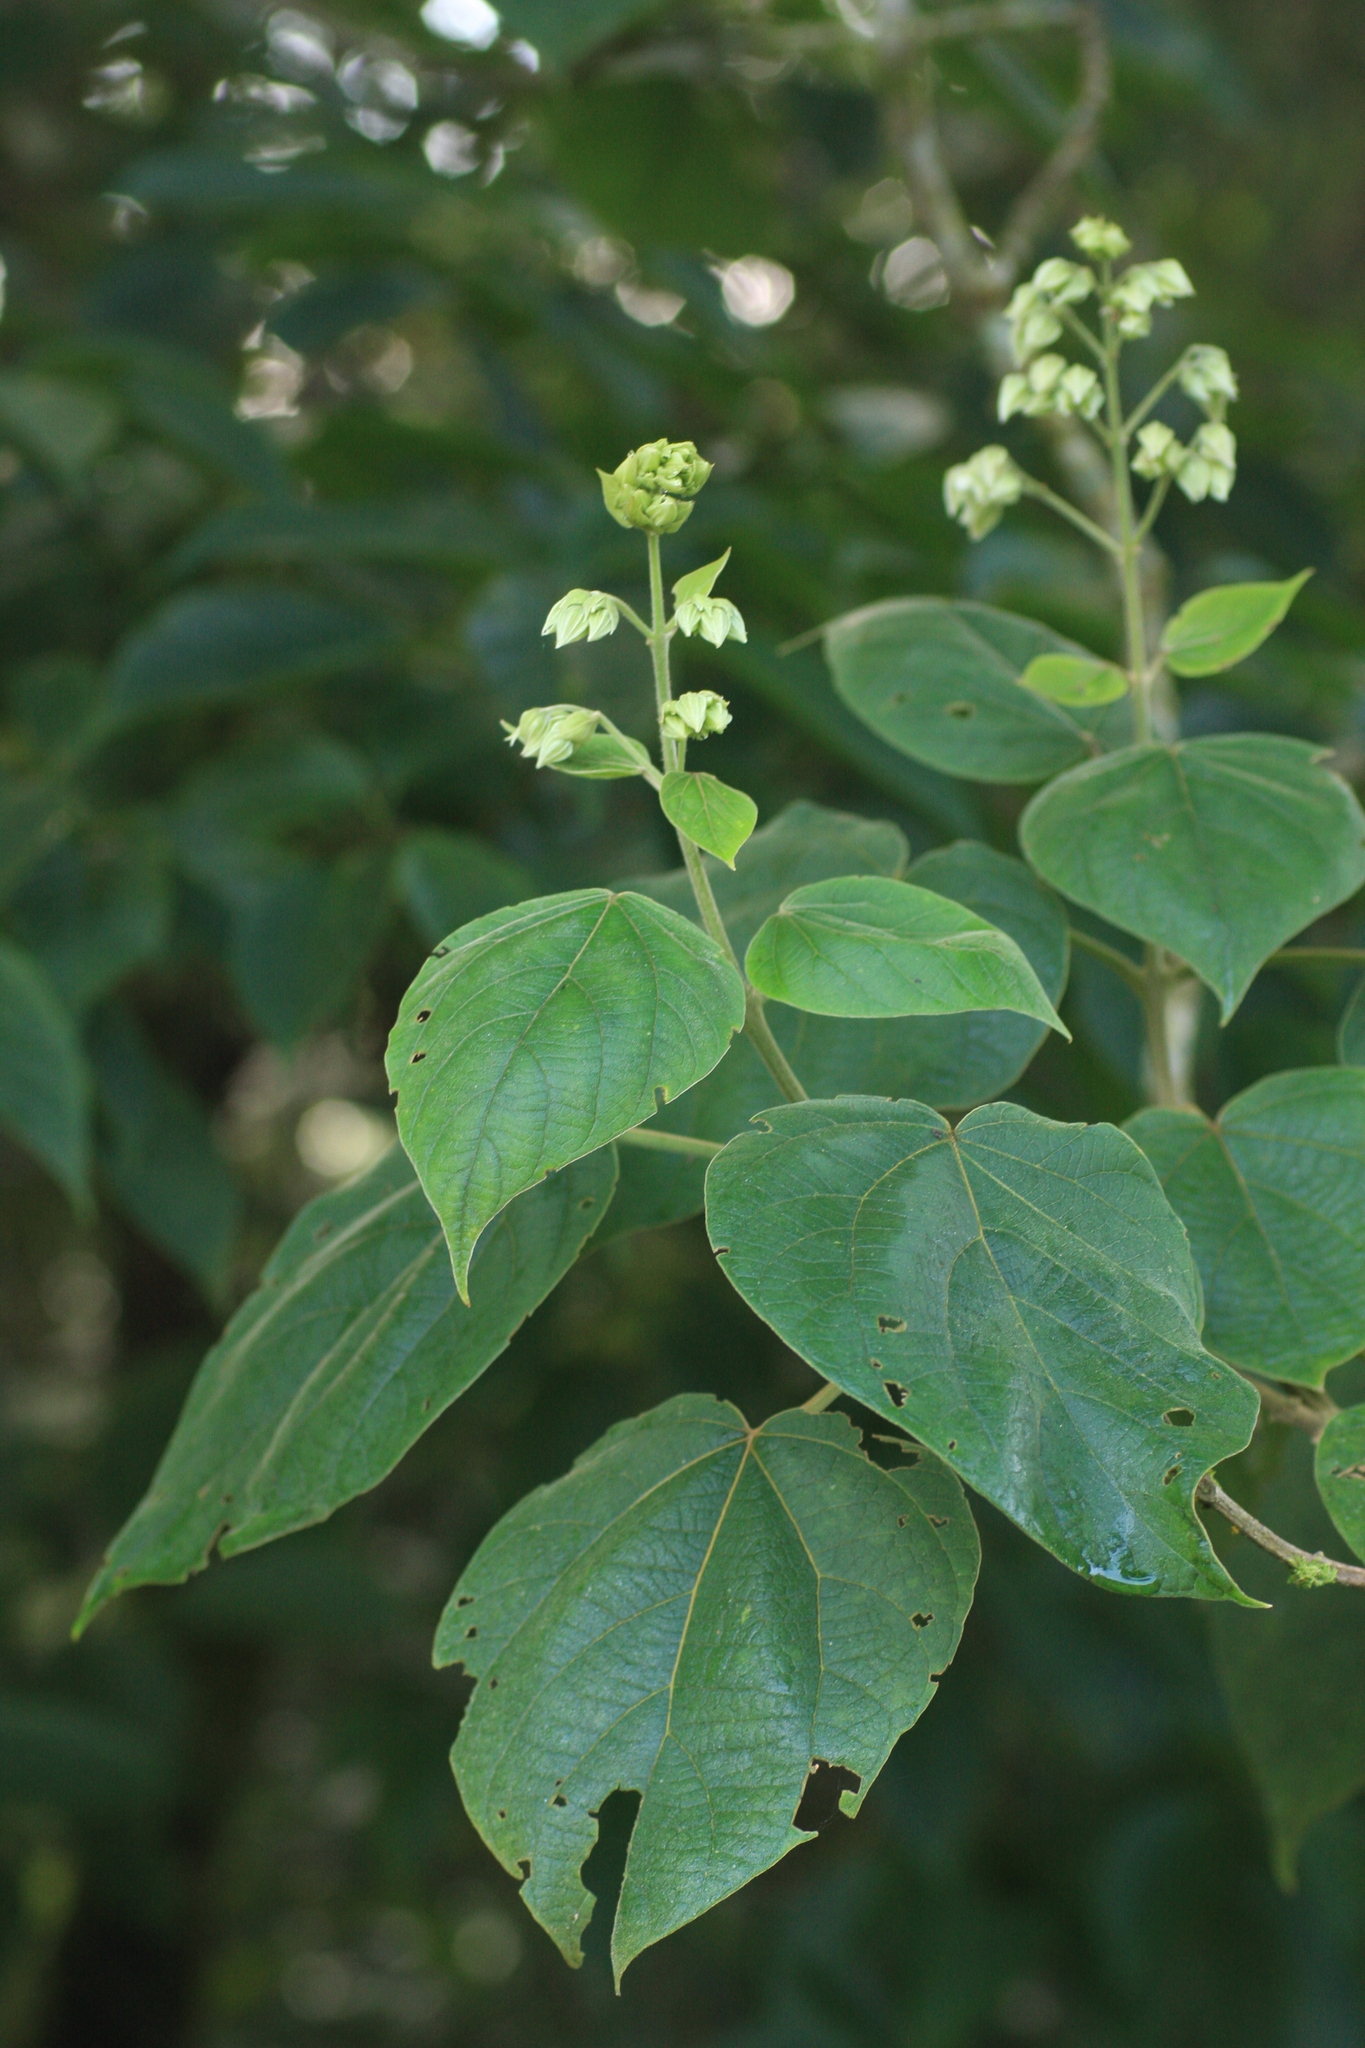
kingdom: Plantae
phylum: Tracheophyta
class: Magnoliopsida
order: Lamiales
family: Lamiaceae
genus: Clerodendrum
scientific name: Clerodendrum infortunatum
